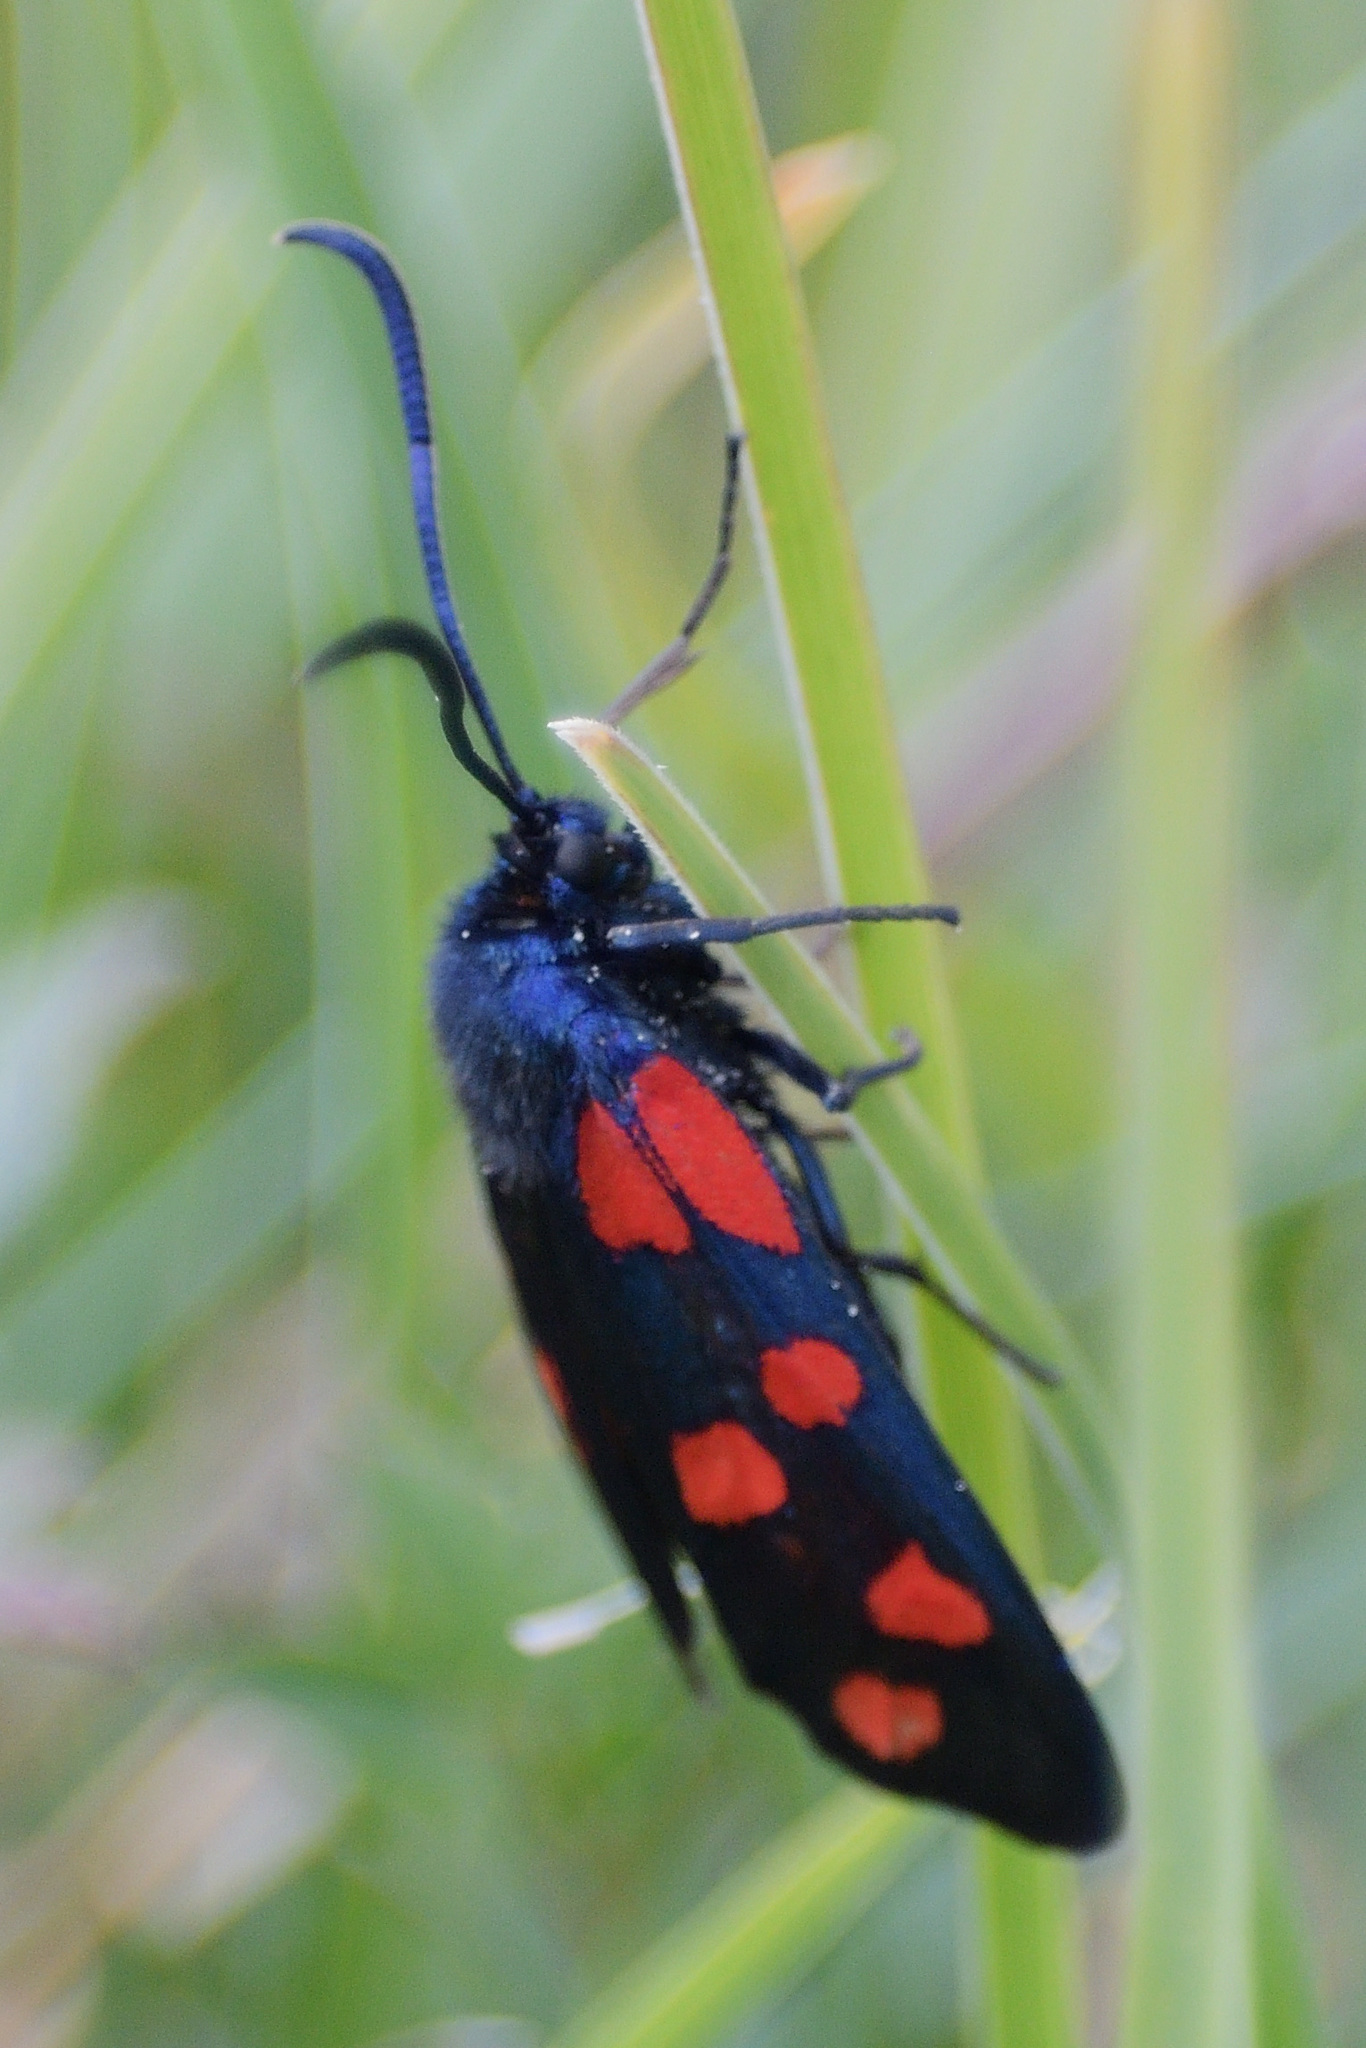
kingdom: Animalia
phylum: Arthropoda
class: Insecta
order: Lepidoptera
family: Zygaenidae
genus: Zygaena
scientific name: Zygaena transalpina
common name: Southern six spot burnet
